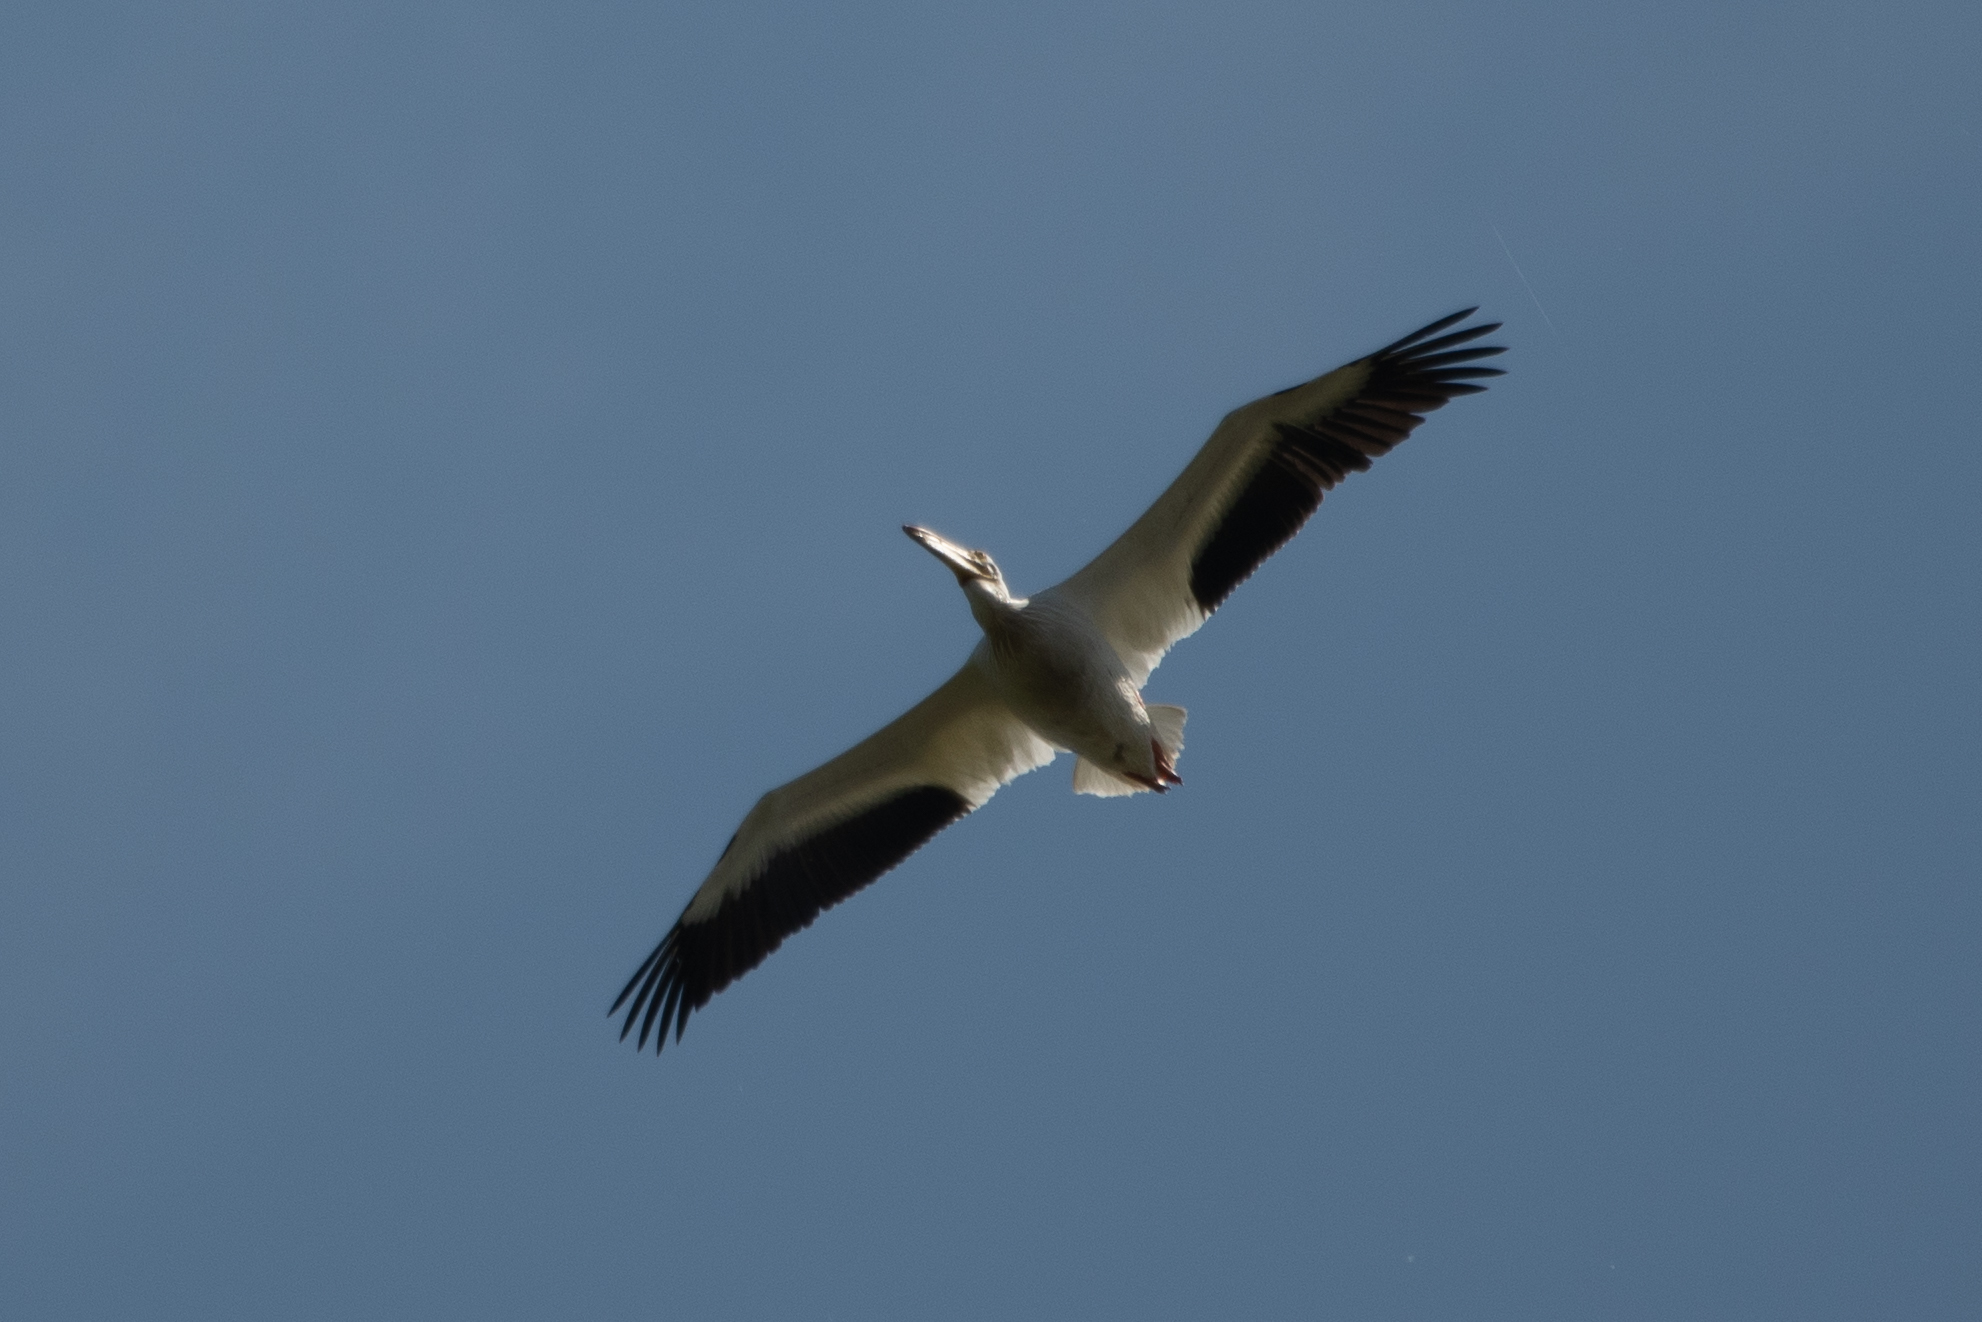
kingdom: Animalia
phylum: Chordata
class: Aves
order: Pelecaniformes
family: Pelecanidae
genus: Pelecanus
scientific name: Pelecanus erythrorhynchos
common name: American white pelican
